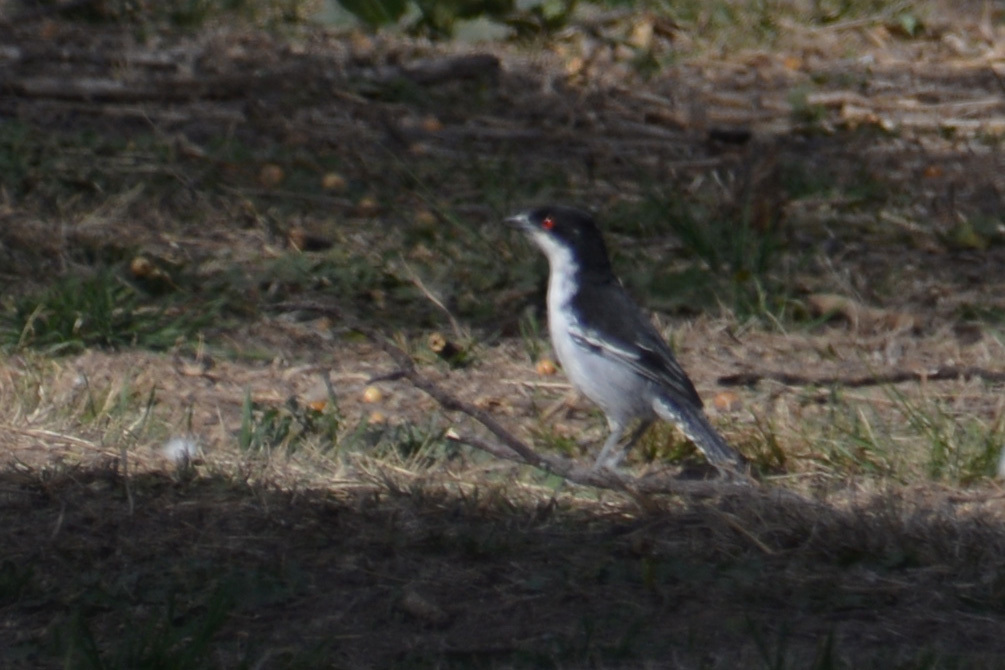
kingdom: Animalia
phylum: Chordata
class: Aves
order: Passeriformes
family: Thamnophilidae
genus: Taraba
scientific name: Taraba major
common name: Great antshrike
